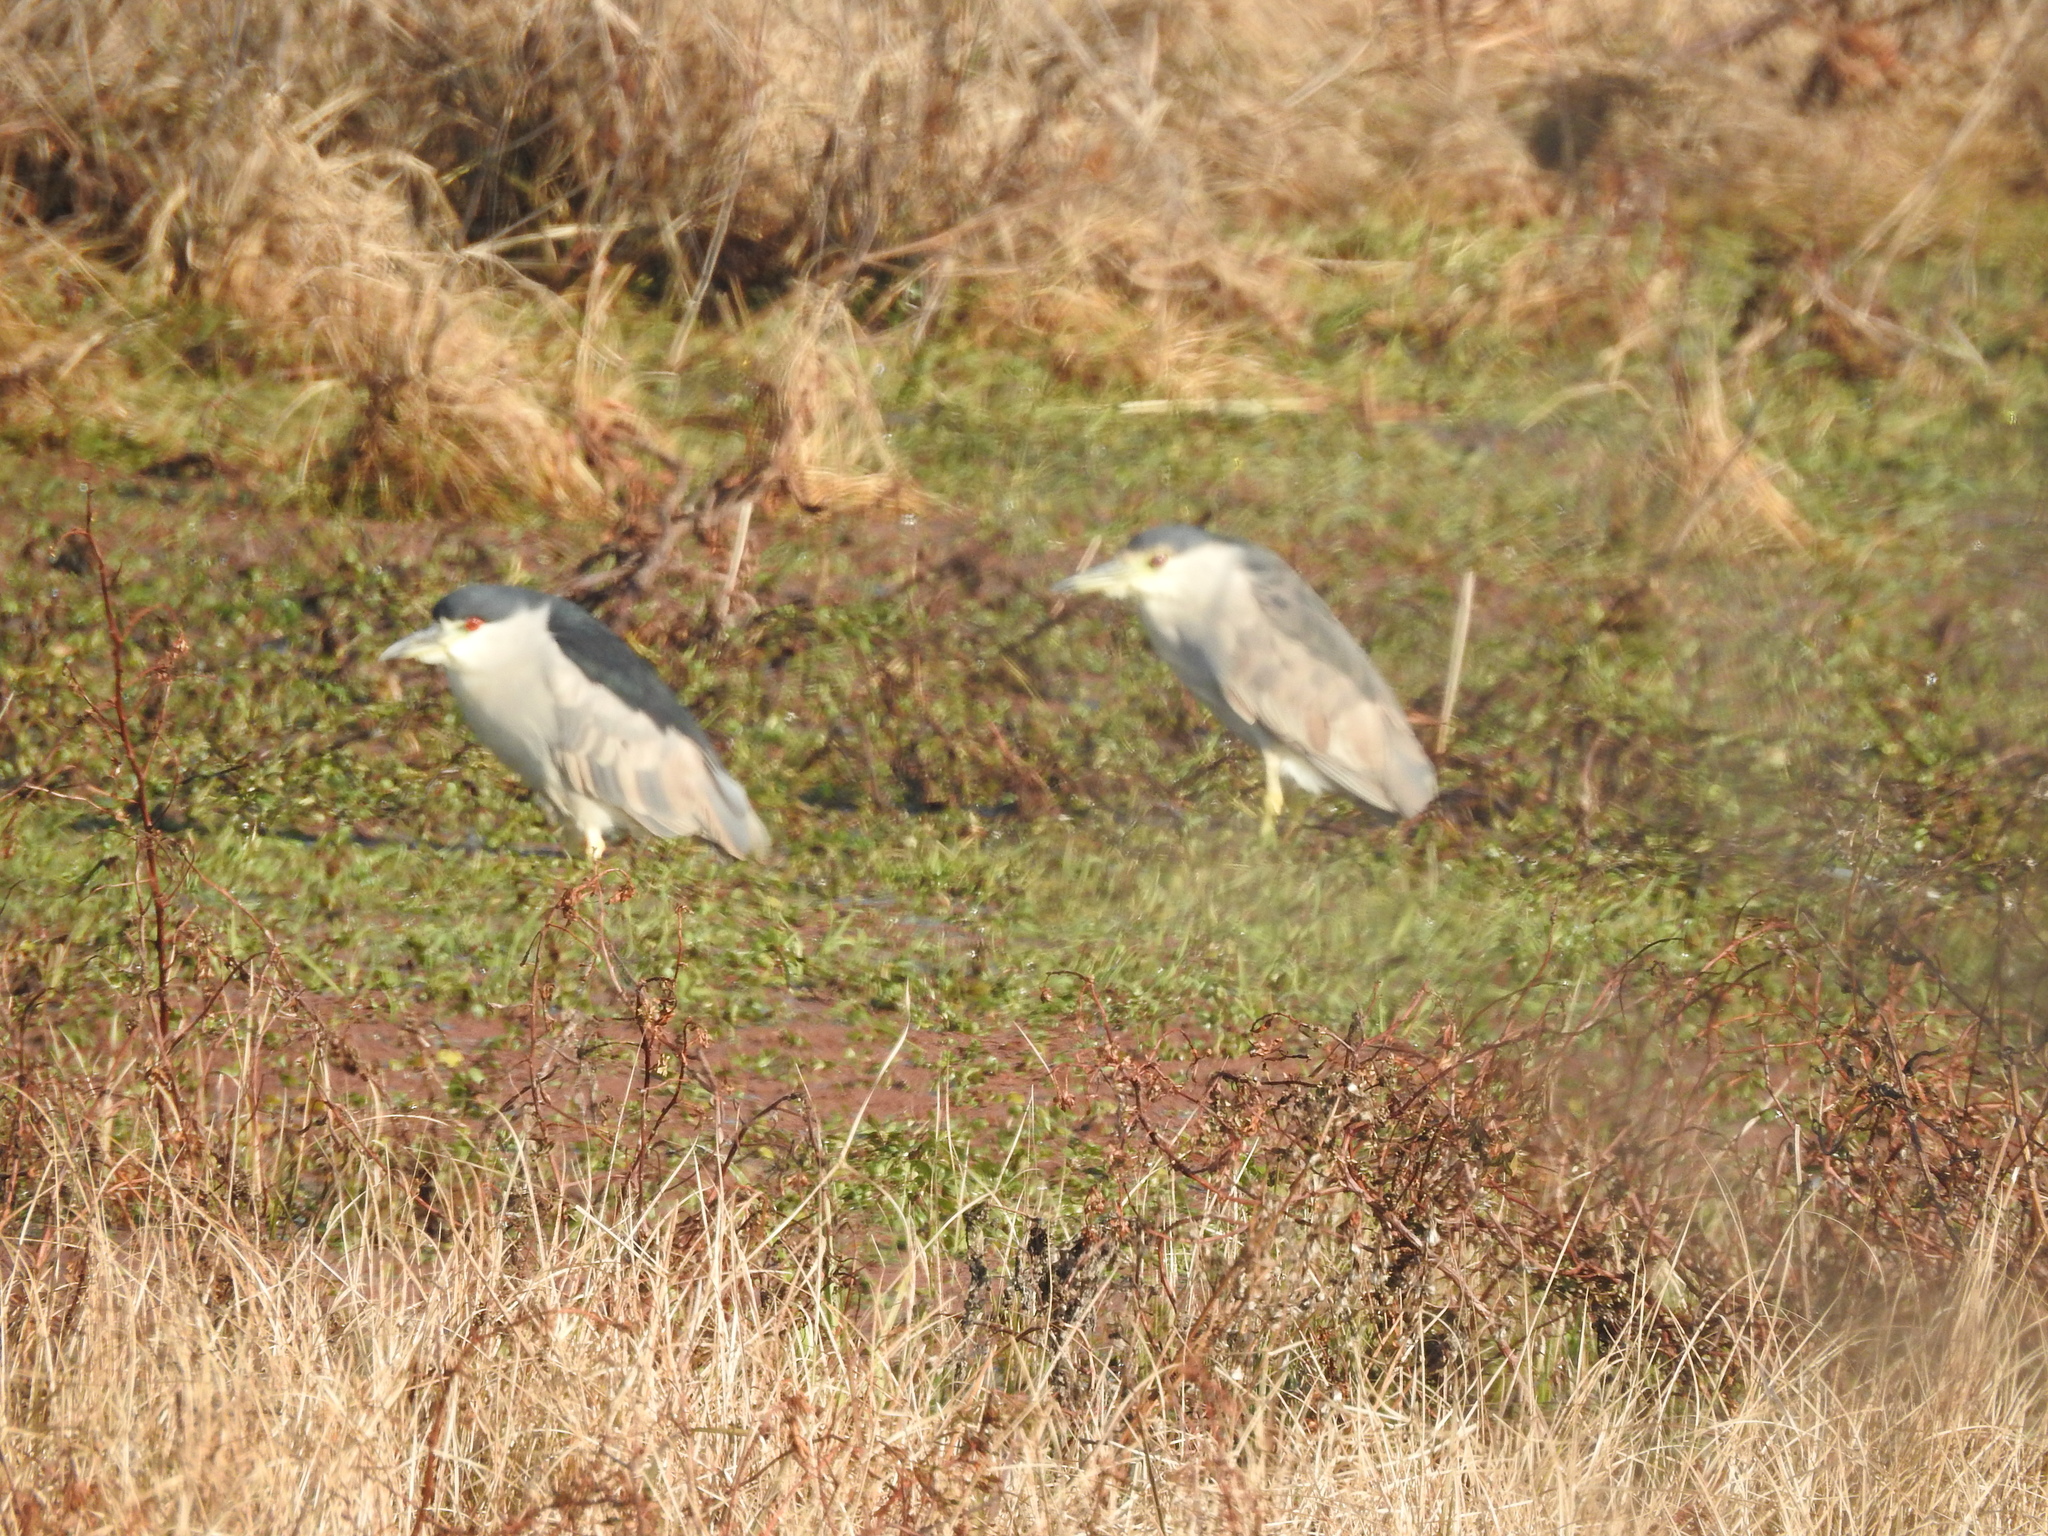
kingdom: Animalia
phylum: Chordata
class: Aves
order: Pelecaniformes
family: Ardeidae
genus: Nycticorax
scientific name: Nycticorax nycticorax
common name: Black-crowned night heron
